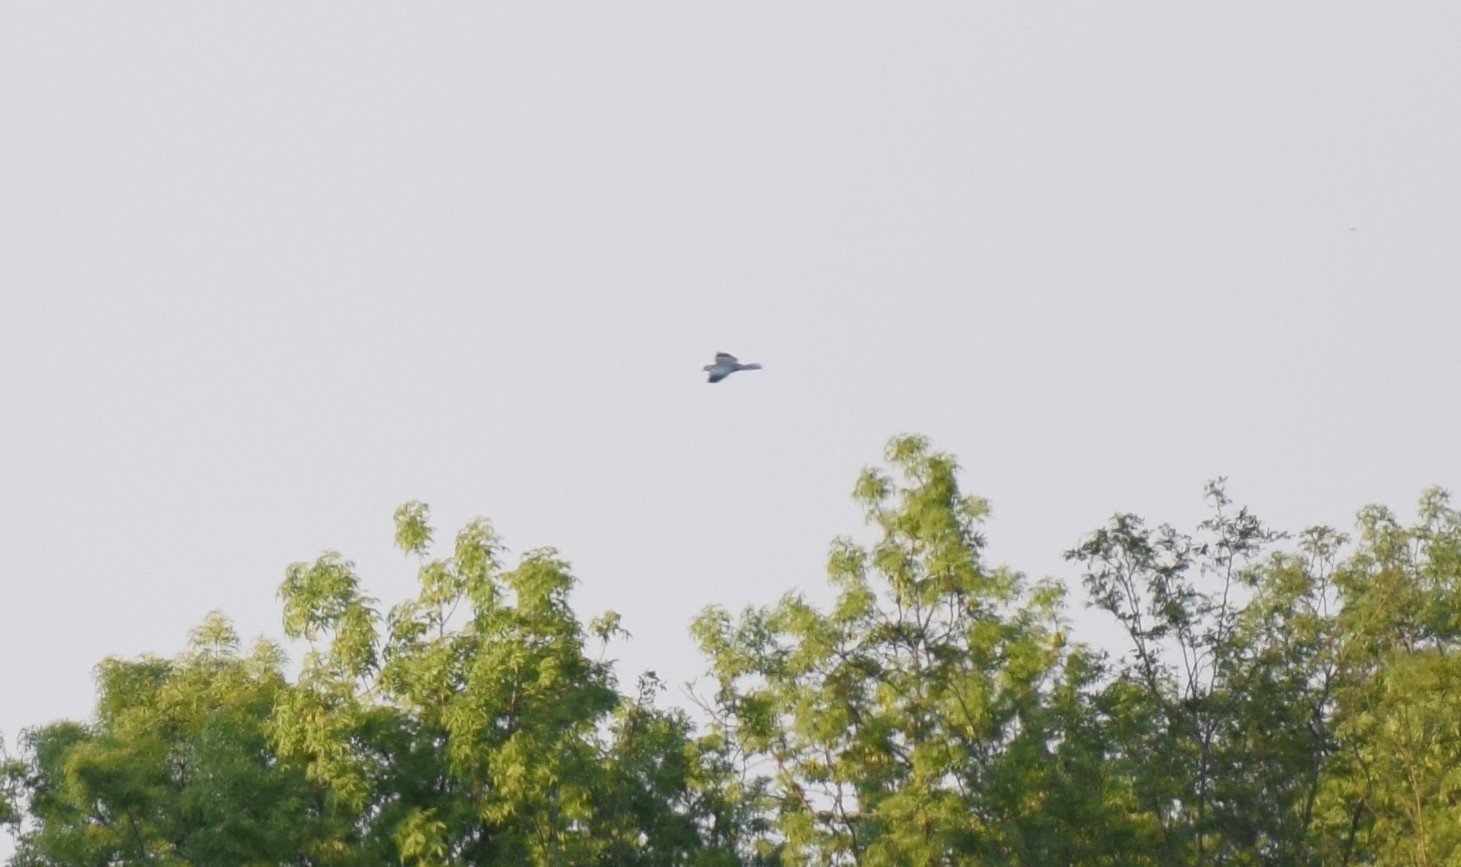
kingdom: Animalia
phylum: Chordata
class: Aves
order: Coraciiformes
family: Coraciidae
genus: Coracias
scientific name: Coracias garrulus
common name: European roller
